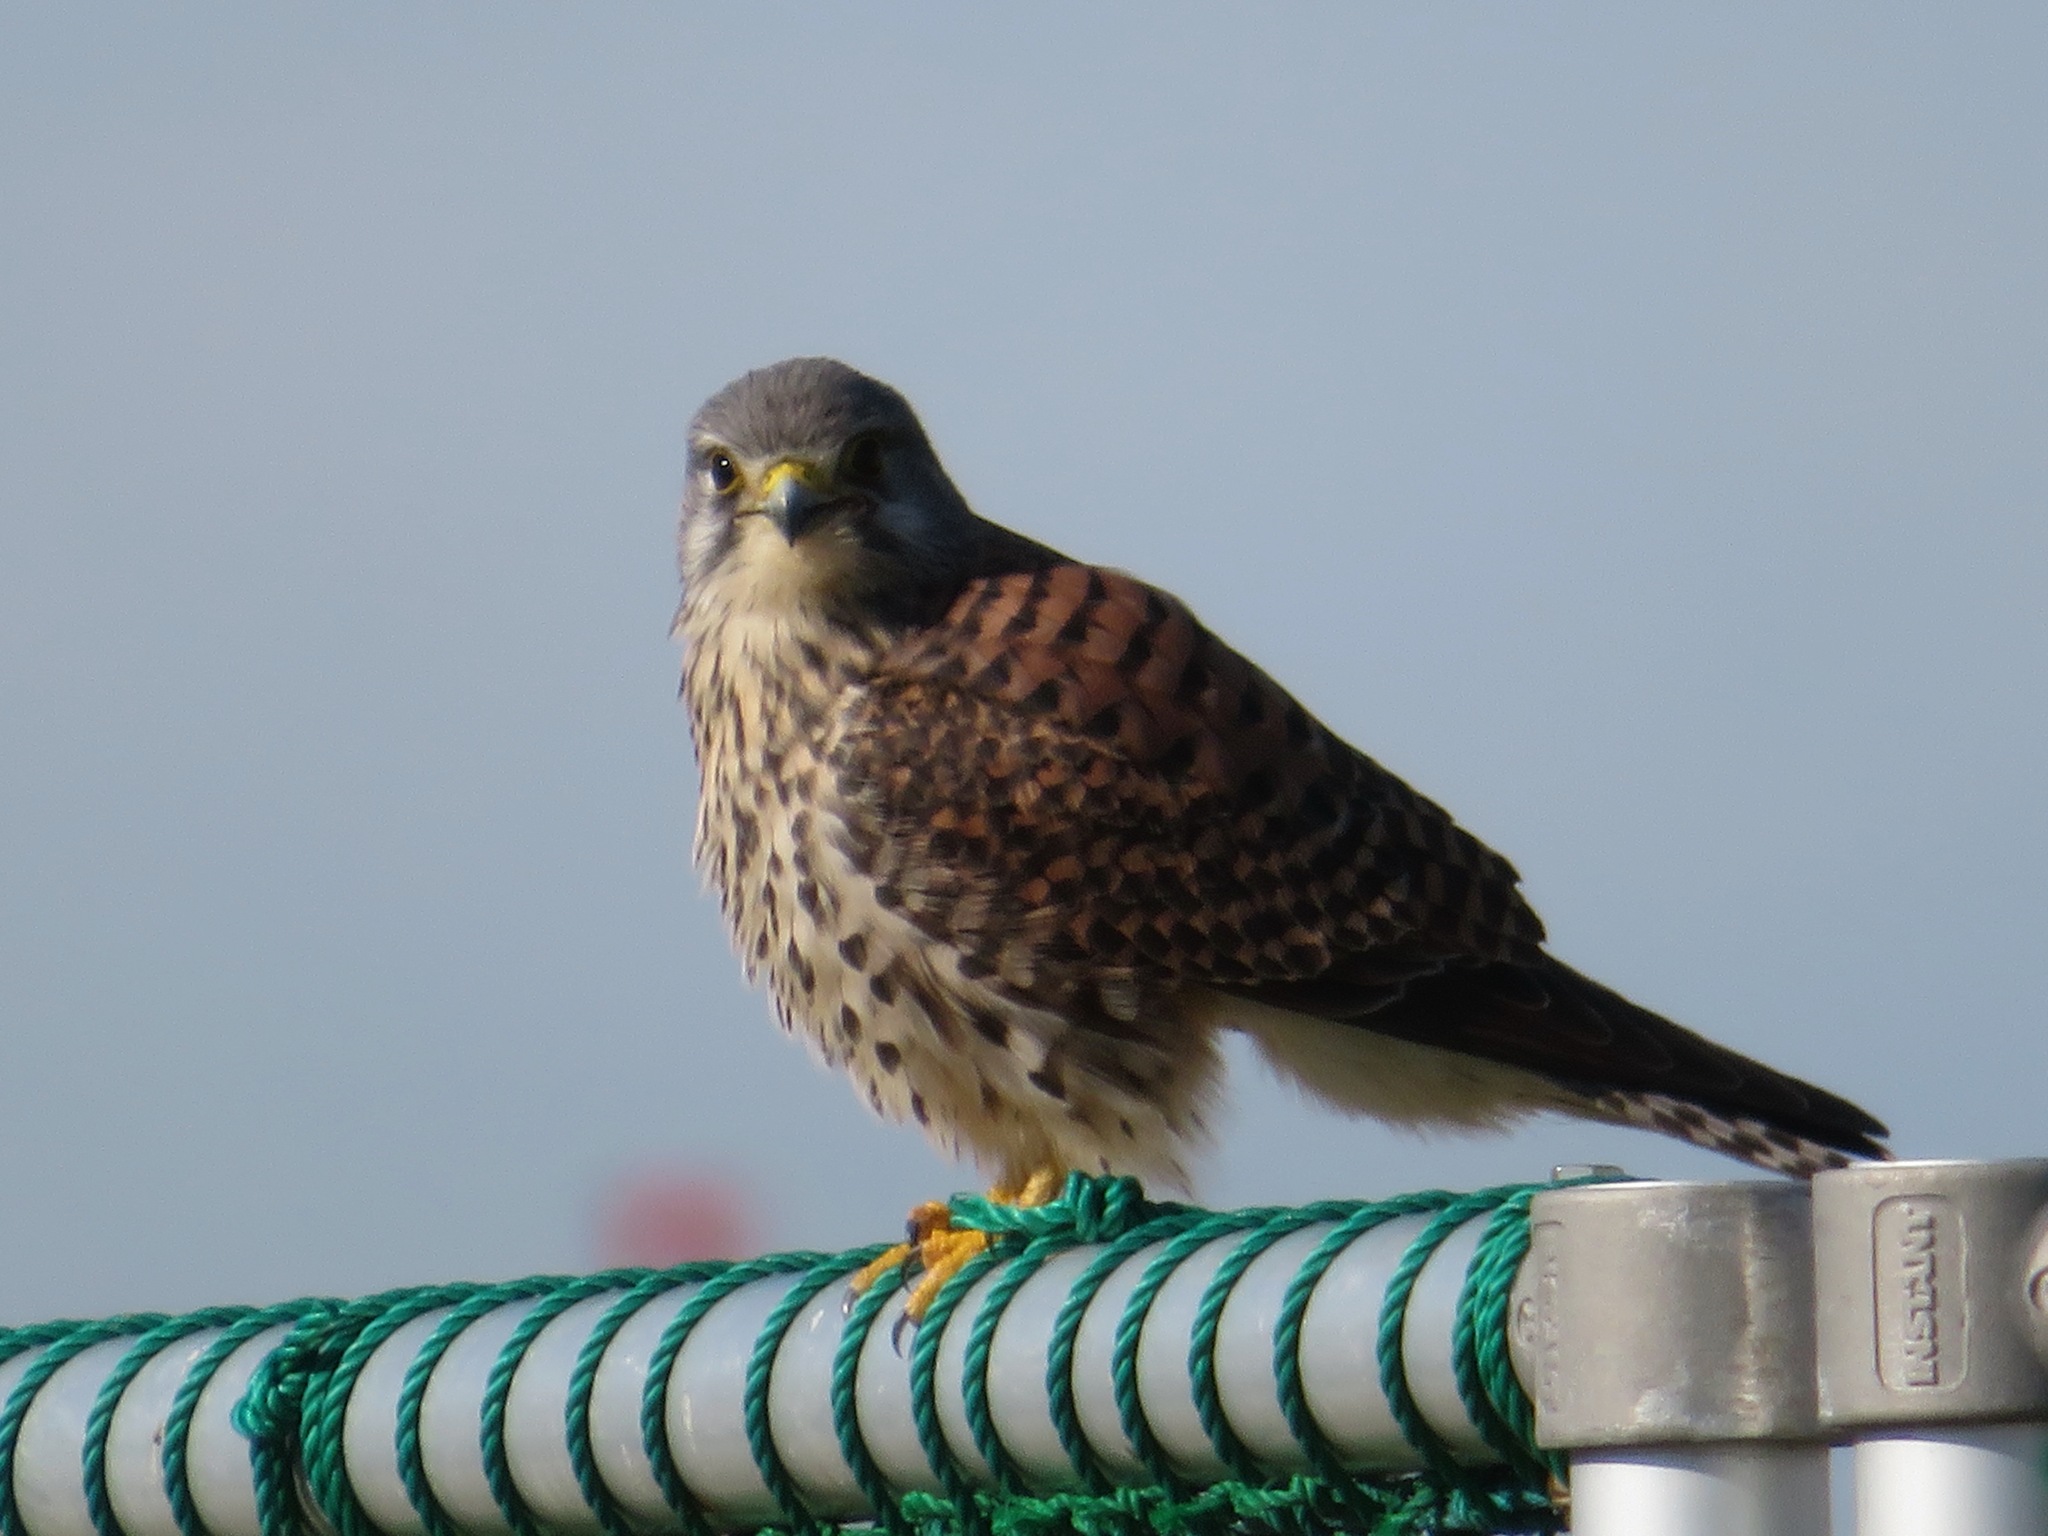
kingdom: Animalia
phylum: Chordata
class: Aves
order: Falconiformes
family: Falconidae
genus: Falco
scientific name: Falco tinnunculus
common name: Common kestrel
